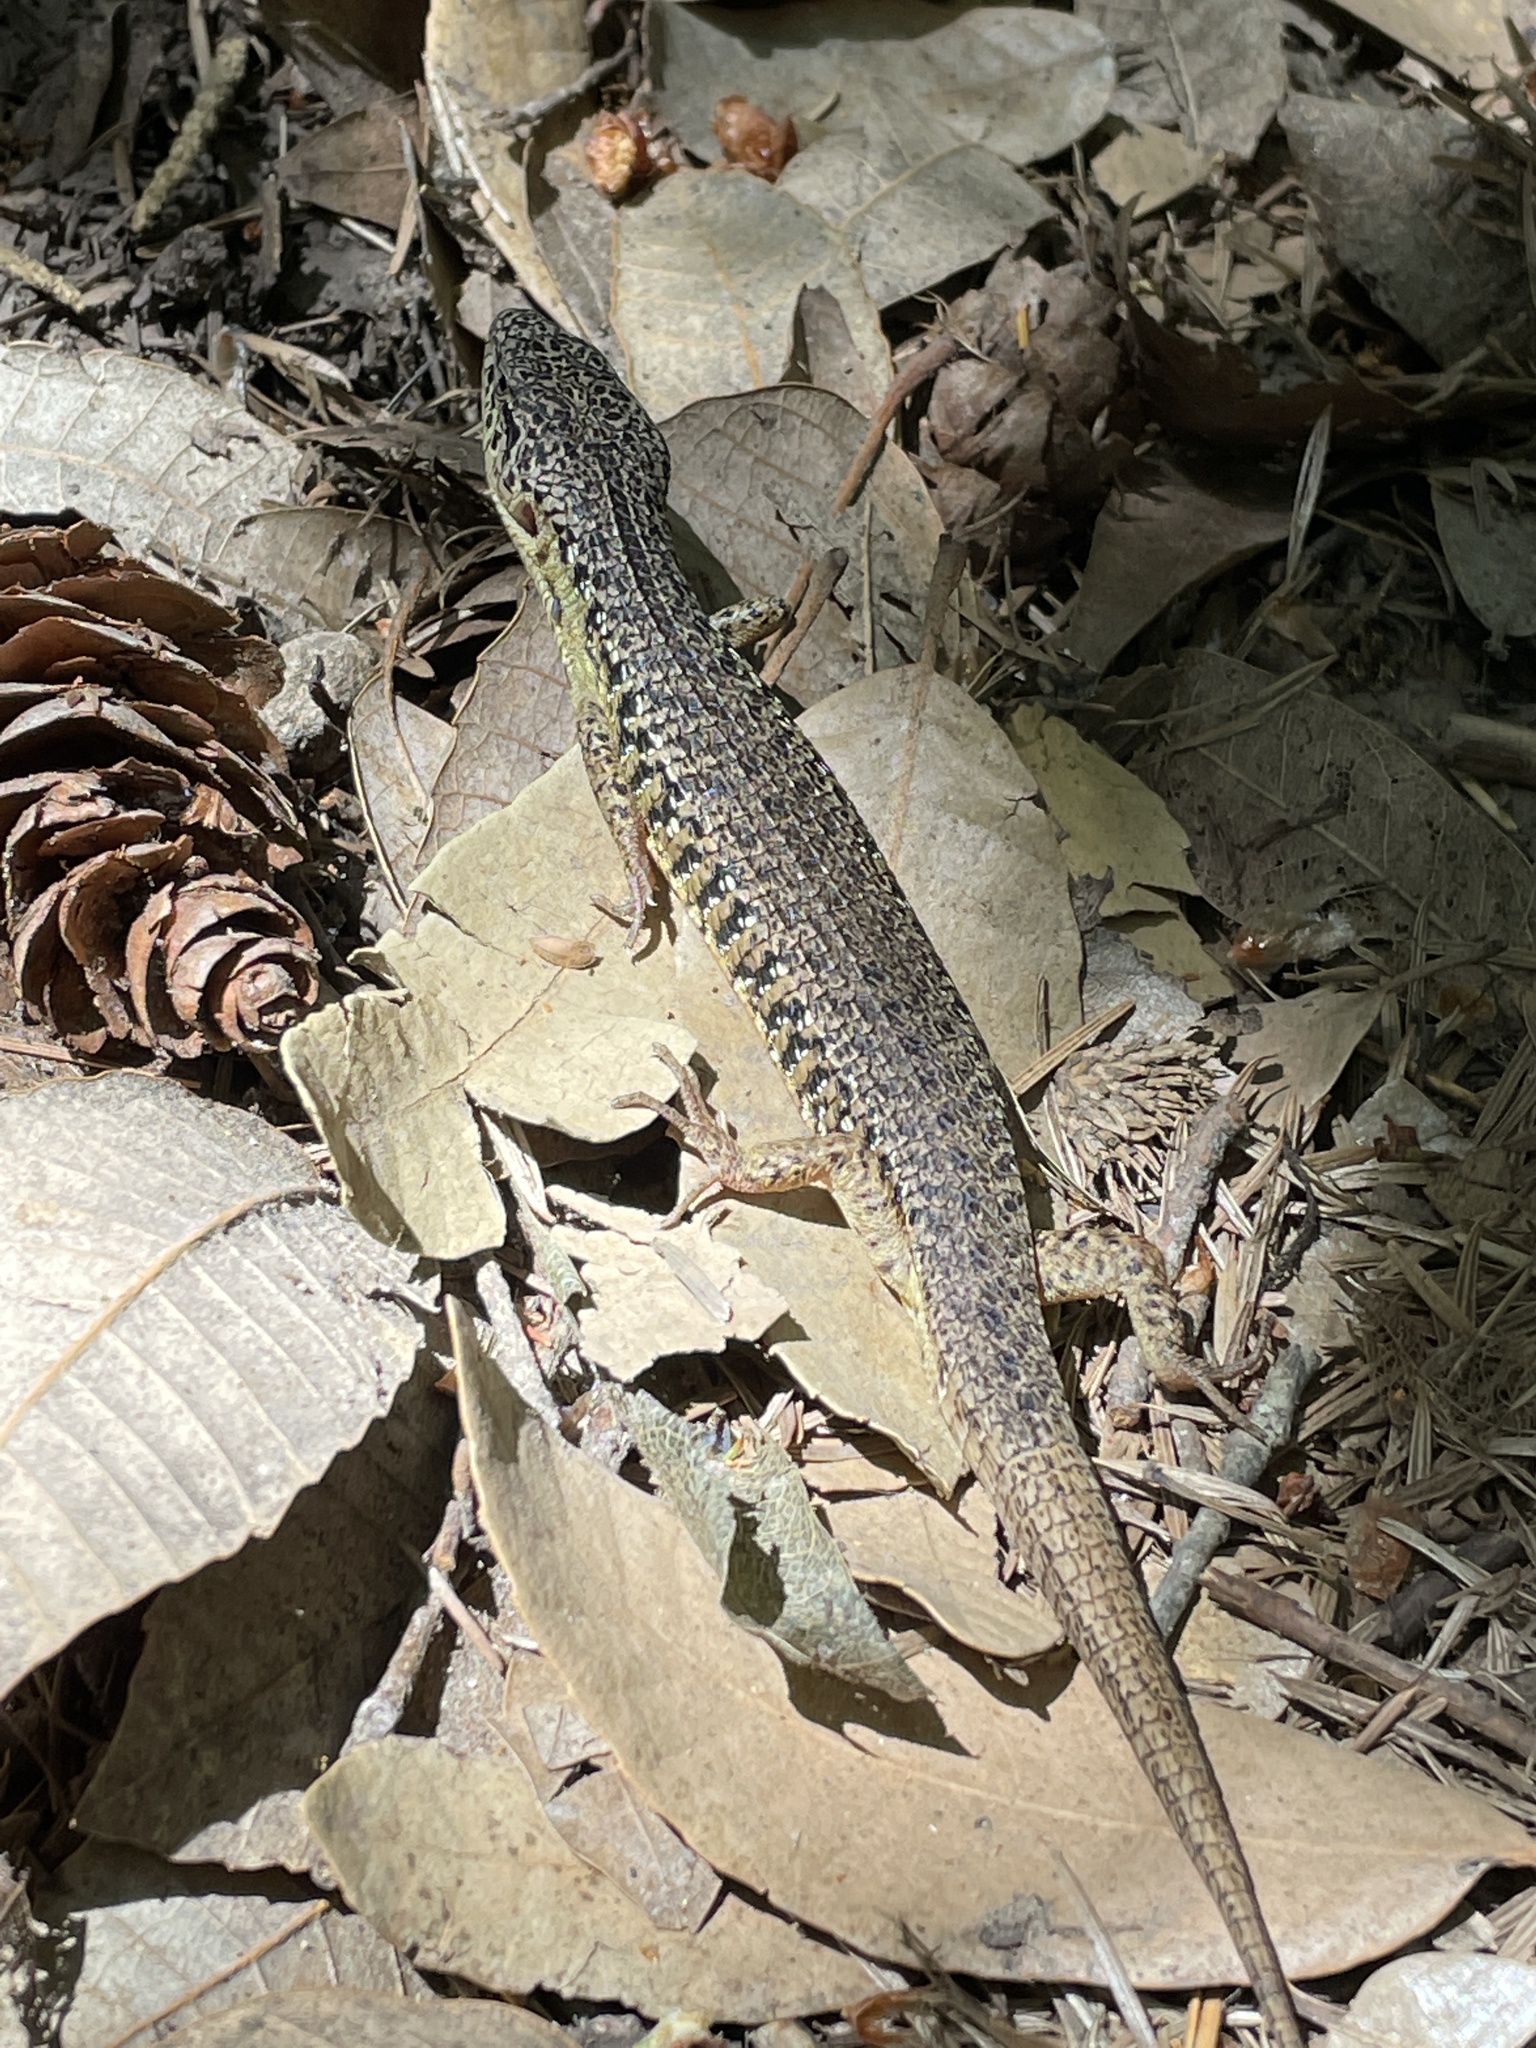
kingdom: Animalia
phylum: Chordata
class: Squamata
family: Anguidae
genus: Elgaria
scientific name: Elgaria coerulea
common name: Northern alligator lizard
